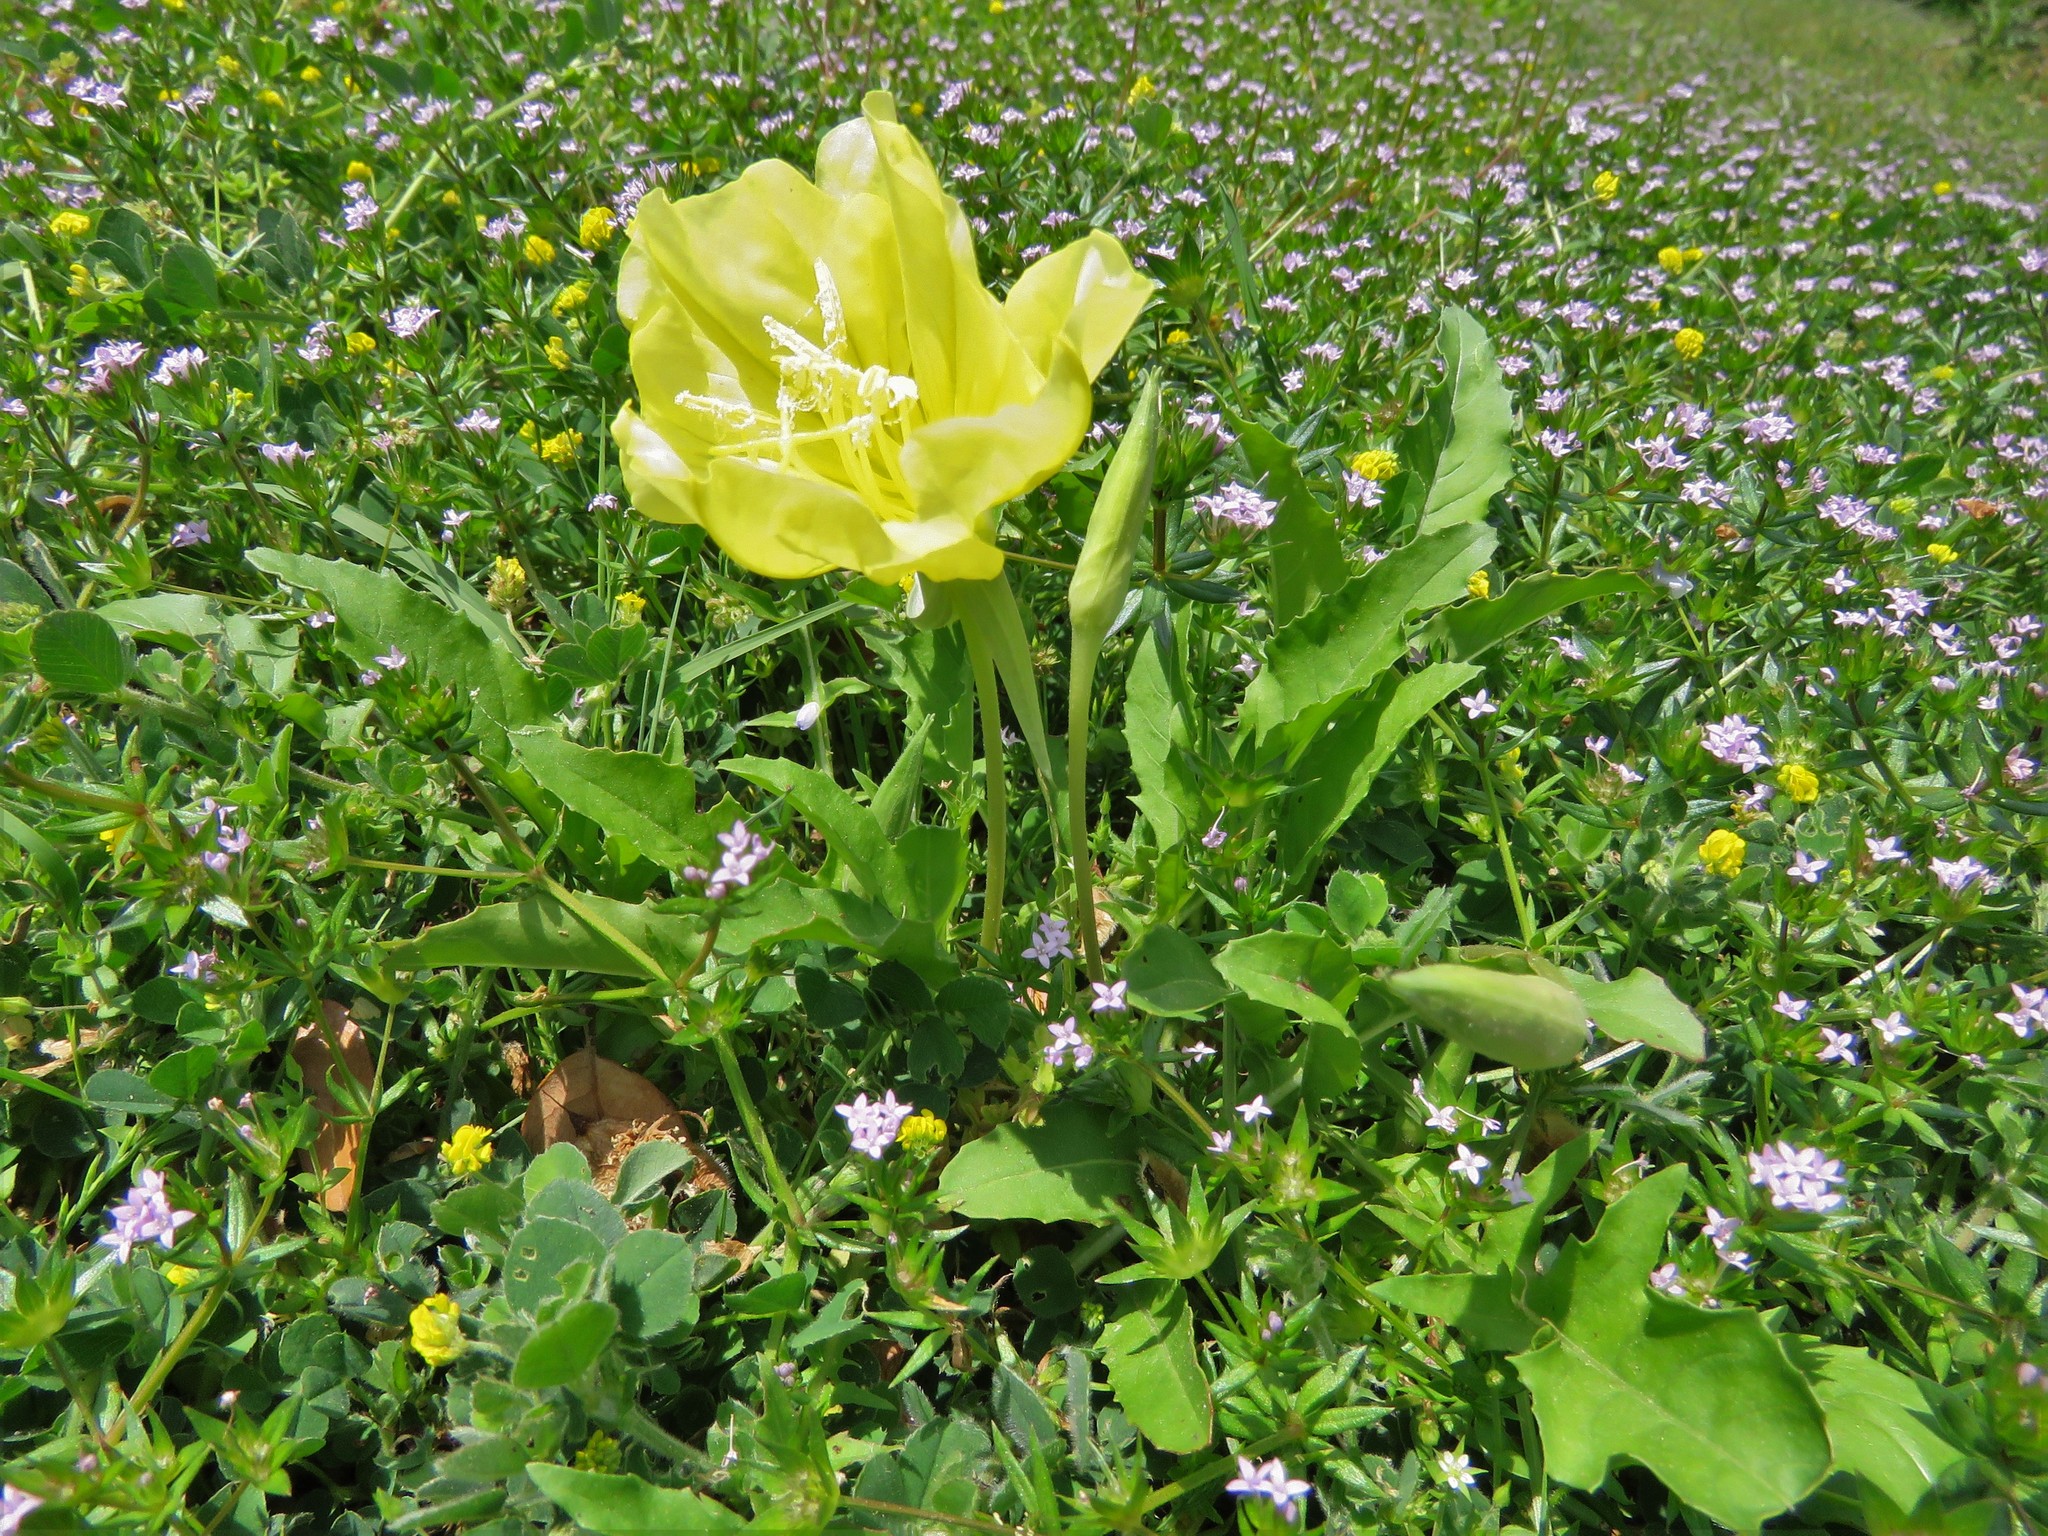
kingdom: Plantae
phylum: Tracheophyta
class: Magnoliopsida
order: Myrtales
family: Onagraceae
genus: Oenothera
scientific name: Oenothera triloba
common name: Sessile evening-primrose
